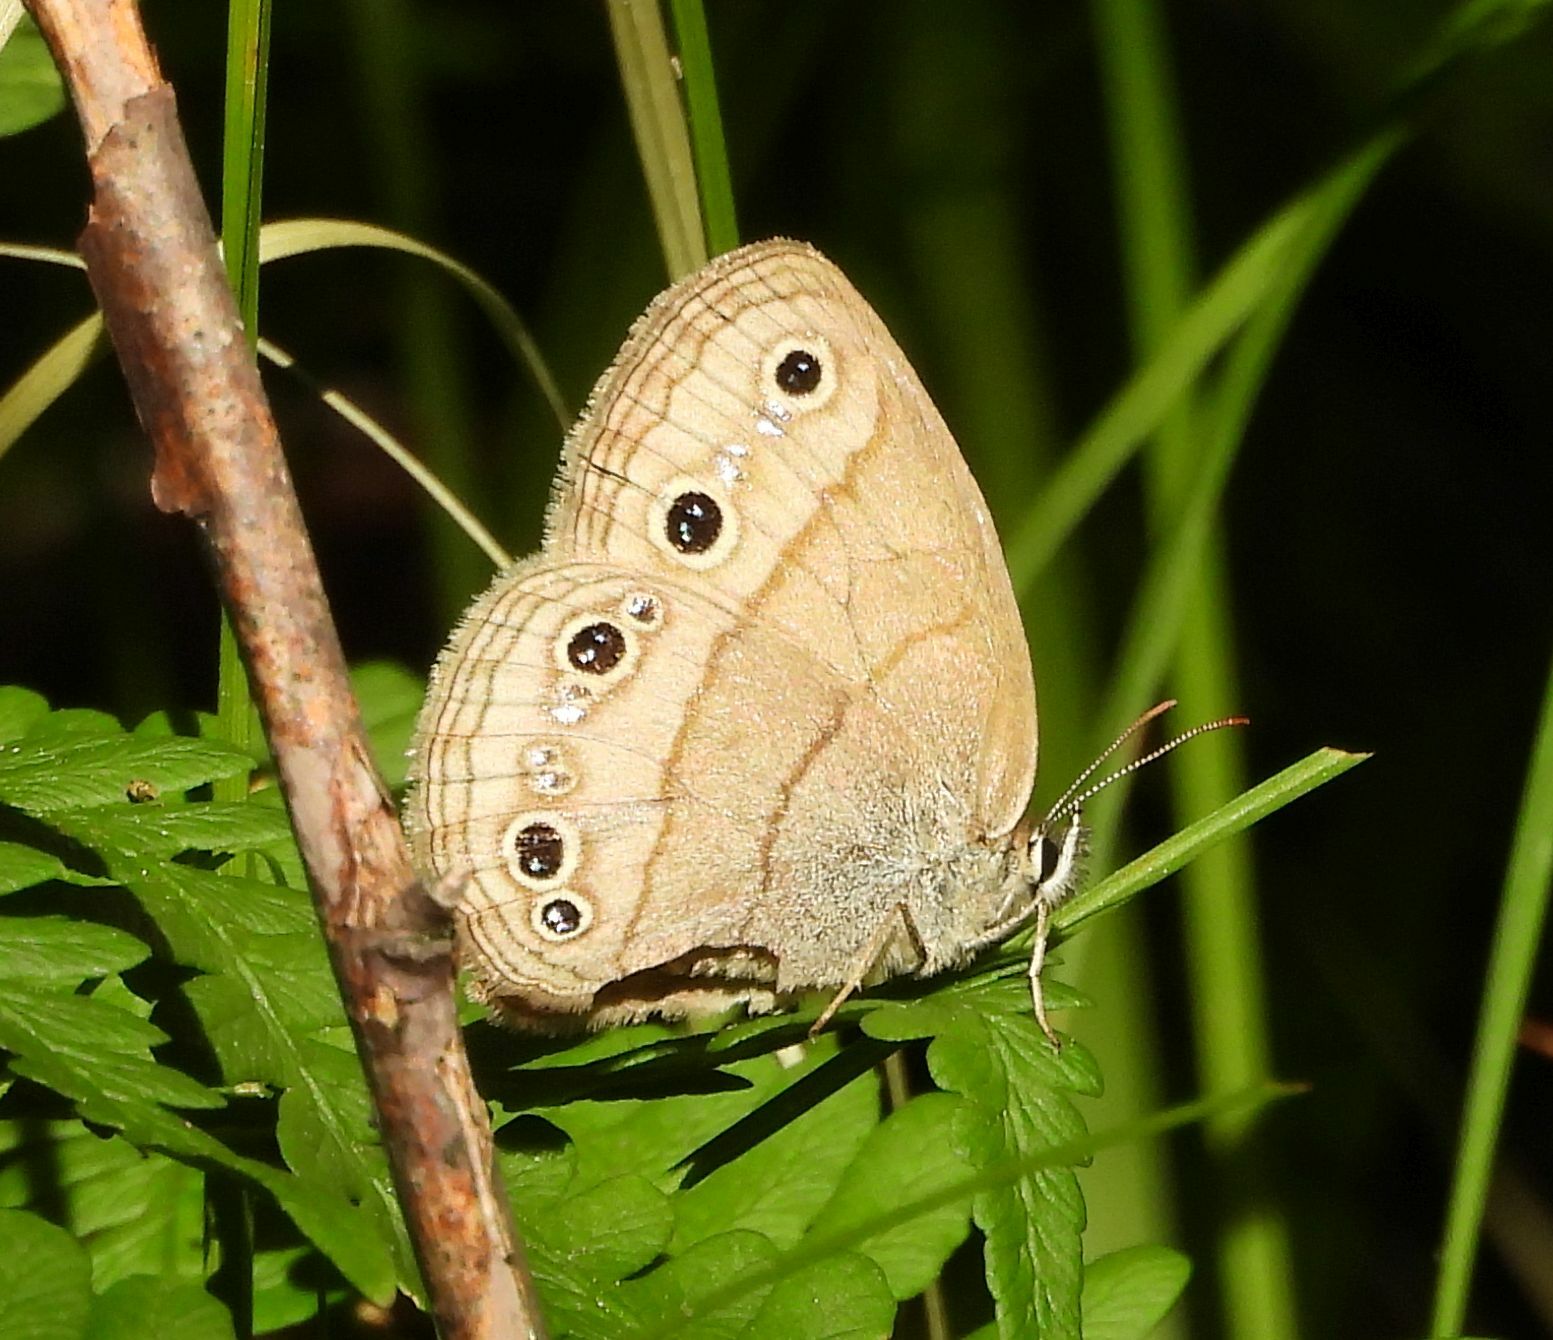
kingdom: Animalia
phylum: Arthropoda
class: Insecta
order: Lepidoptera
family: Nymphalidae
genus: Euptychia
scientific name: Euptychia cymela
